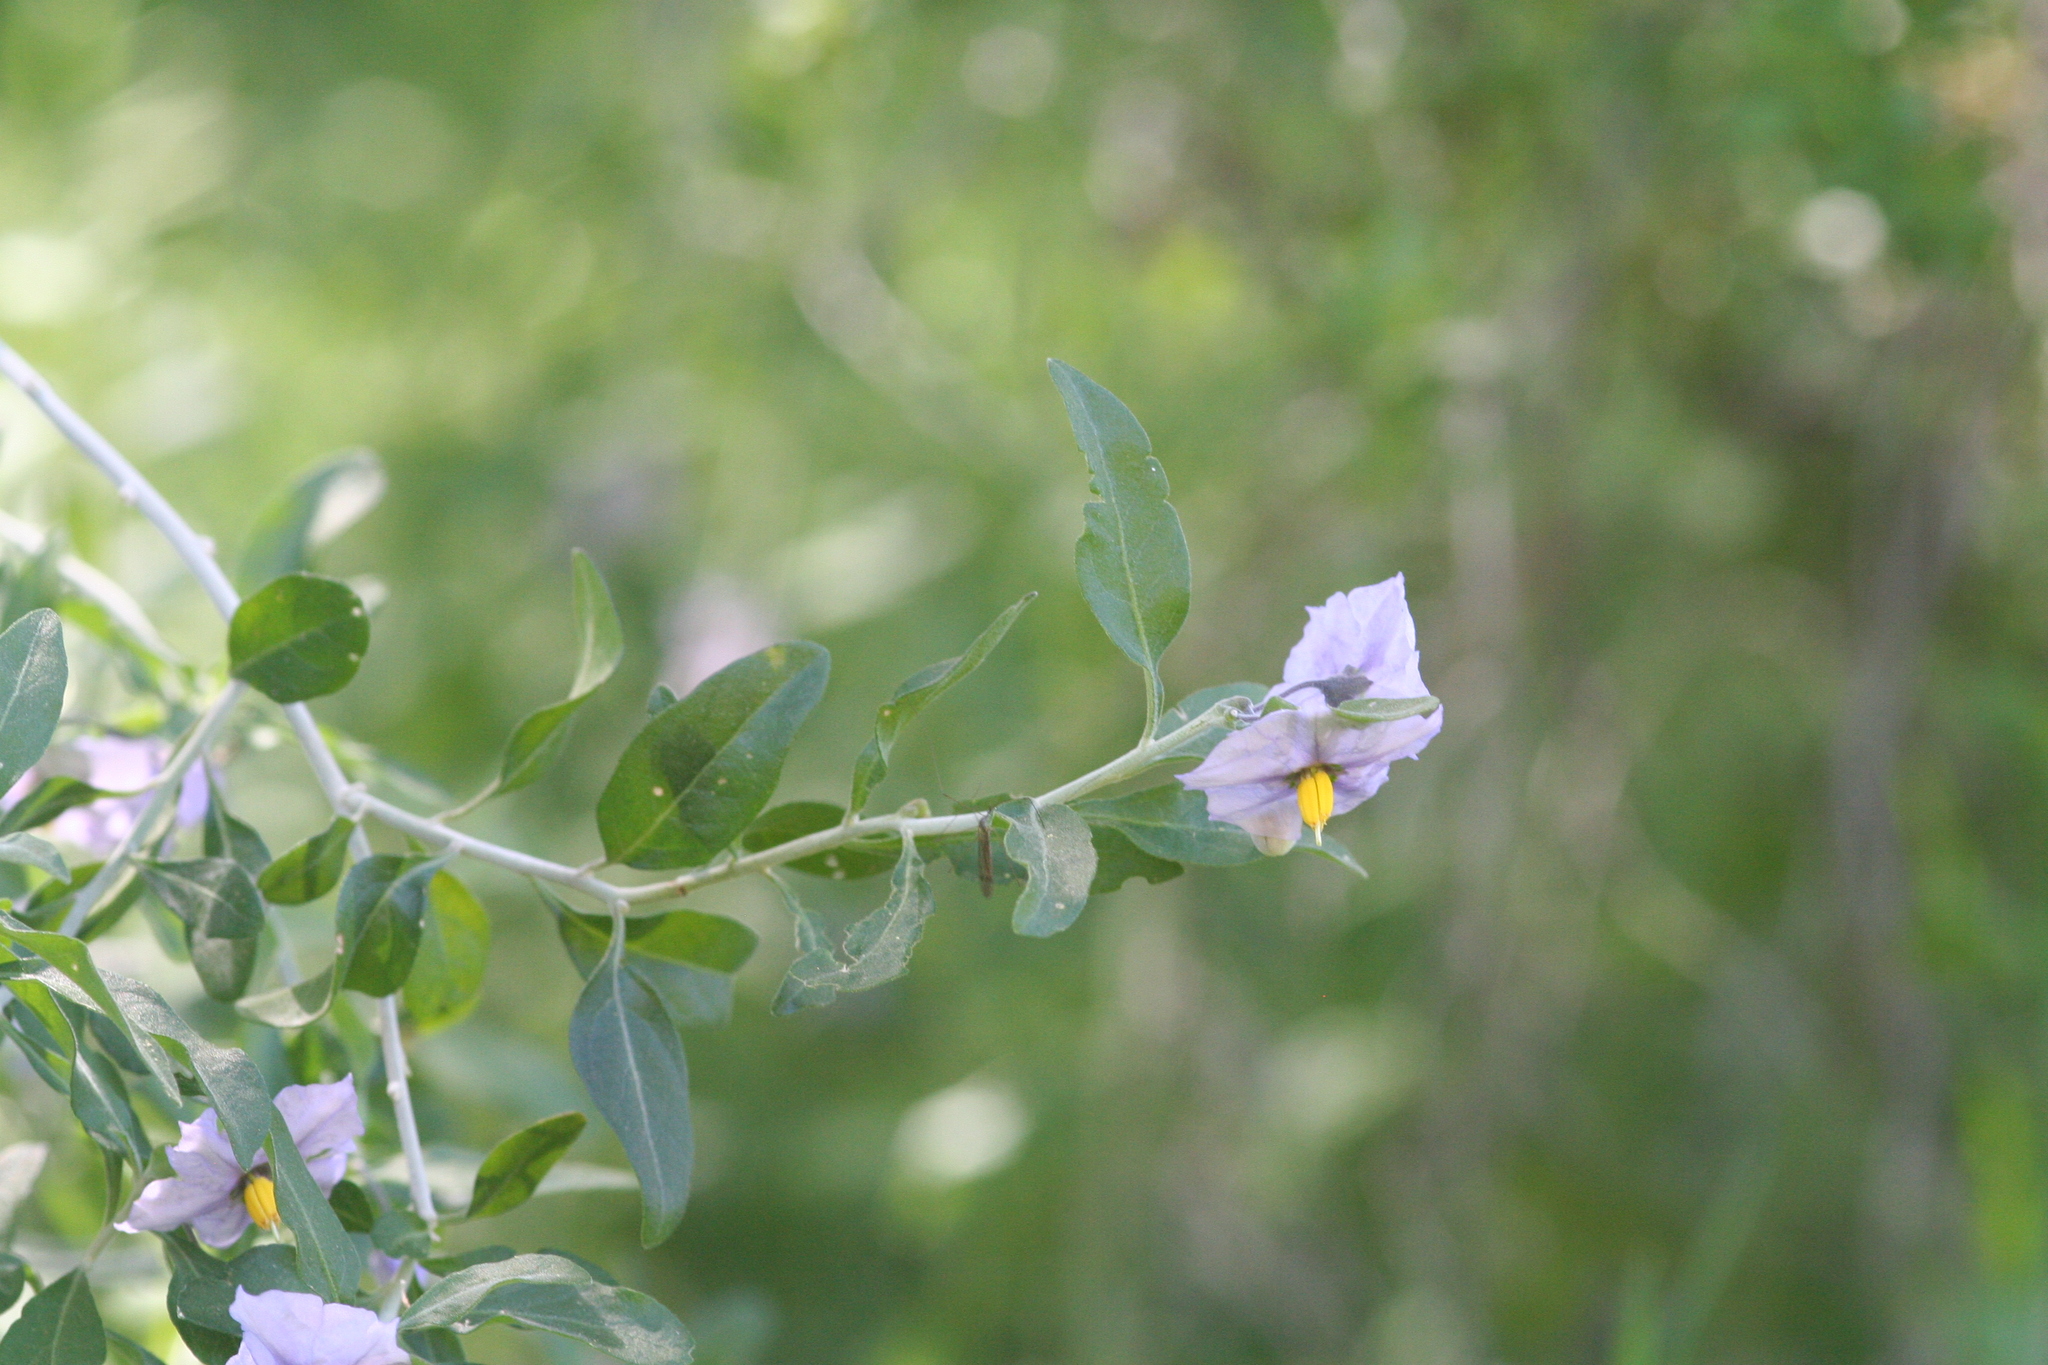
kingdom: Plantae
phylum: Tracheophyta
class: Magnoliopsida
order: Solanales
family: Solanaceae
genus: Solanum
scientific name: Solanum umbelliferum
